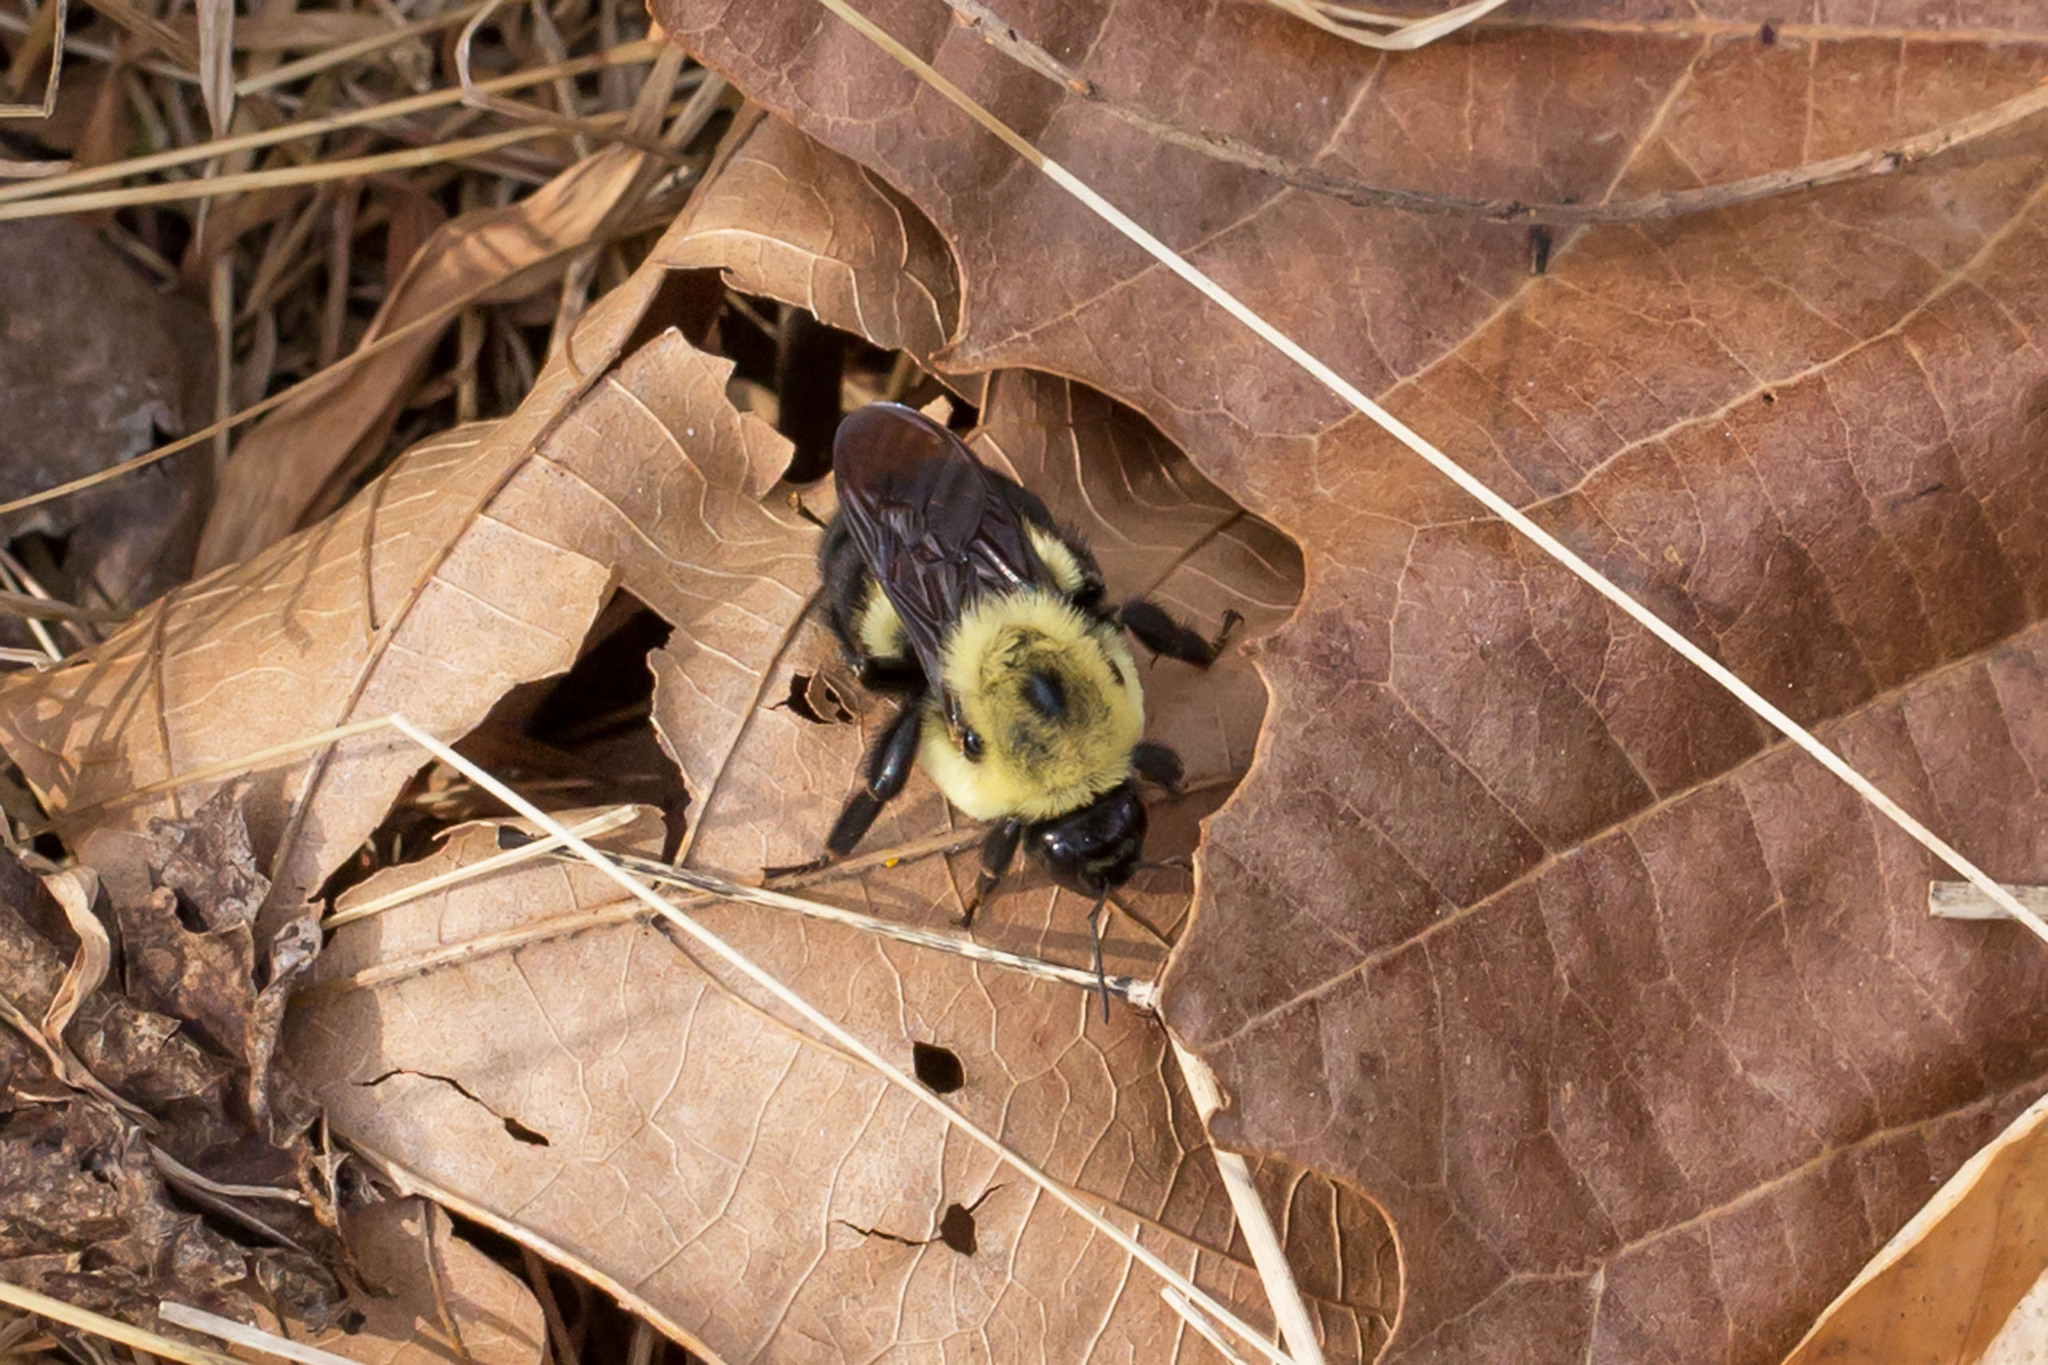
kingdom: Animalia
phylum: Arthropoda
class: Insecta
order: Hymenoptera
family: Apidae
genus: Bombus
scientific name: Bombus griseocollis
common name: Brown-belted bumble bee
